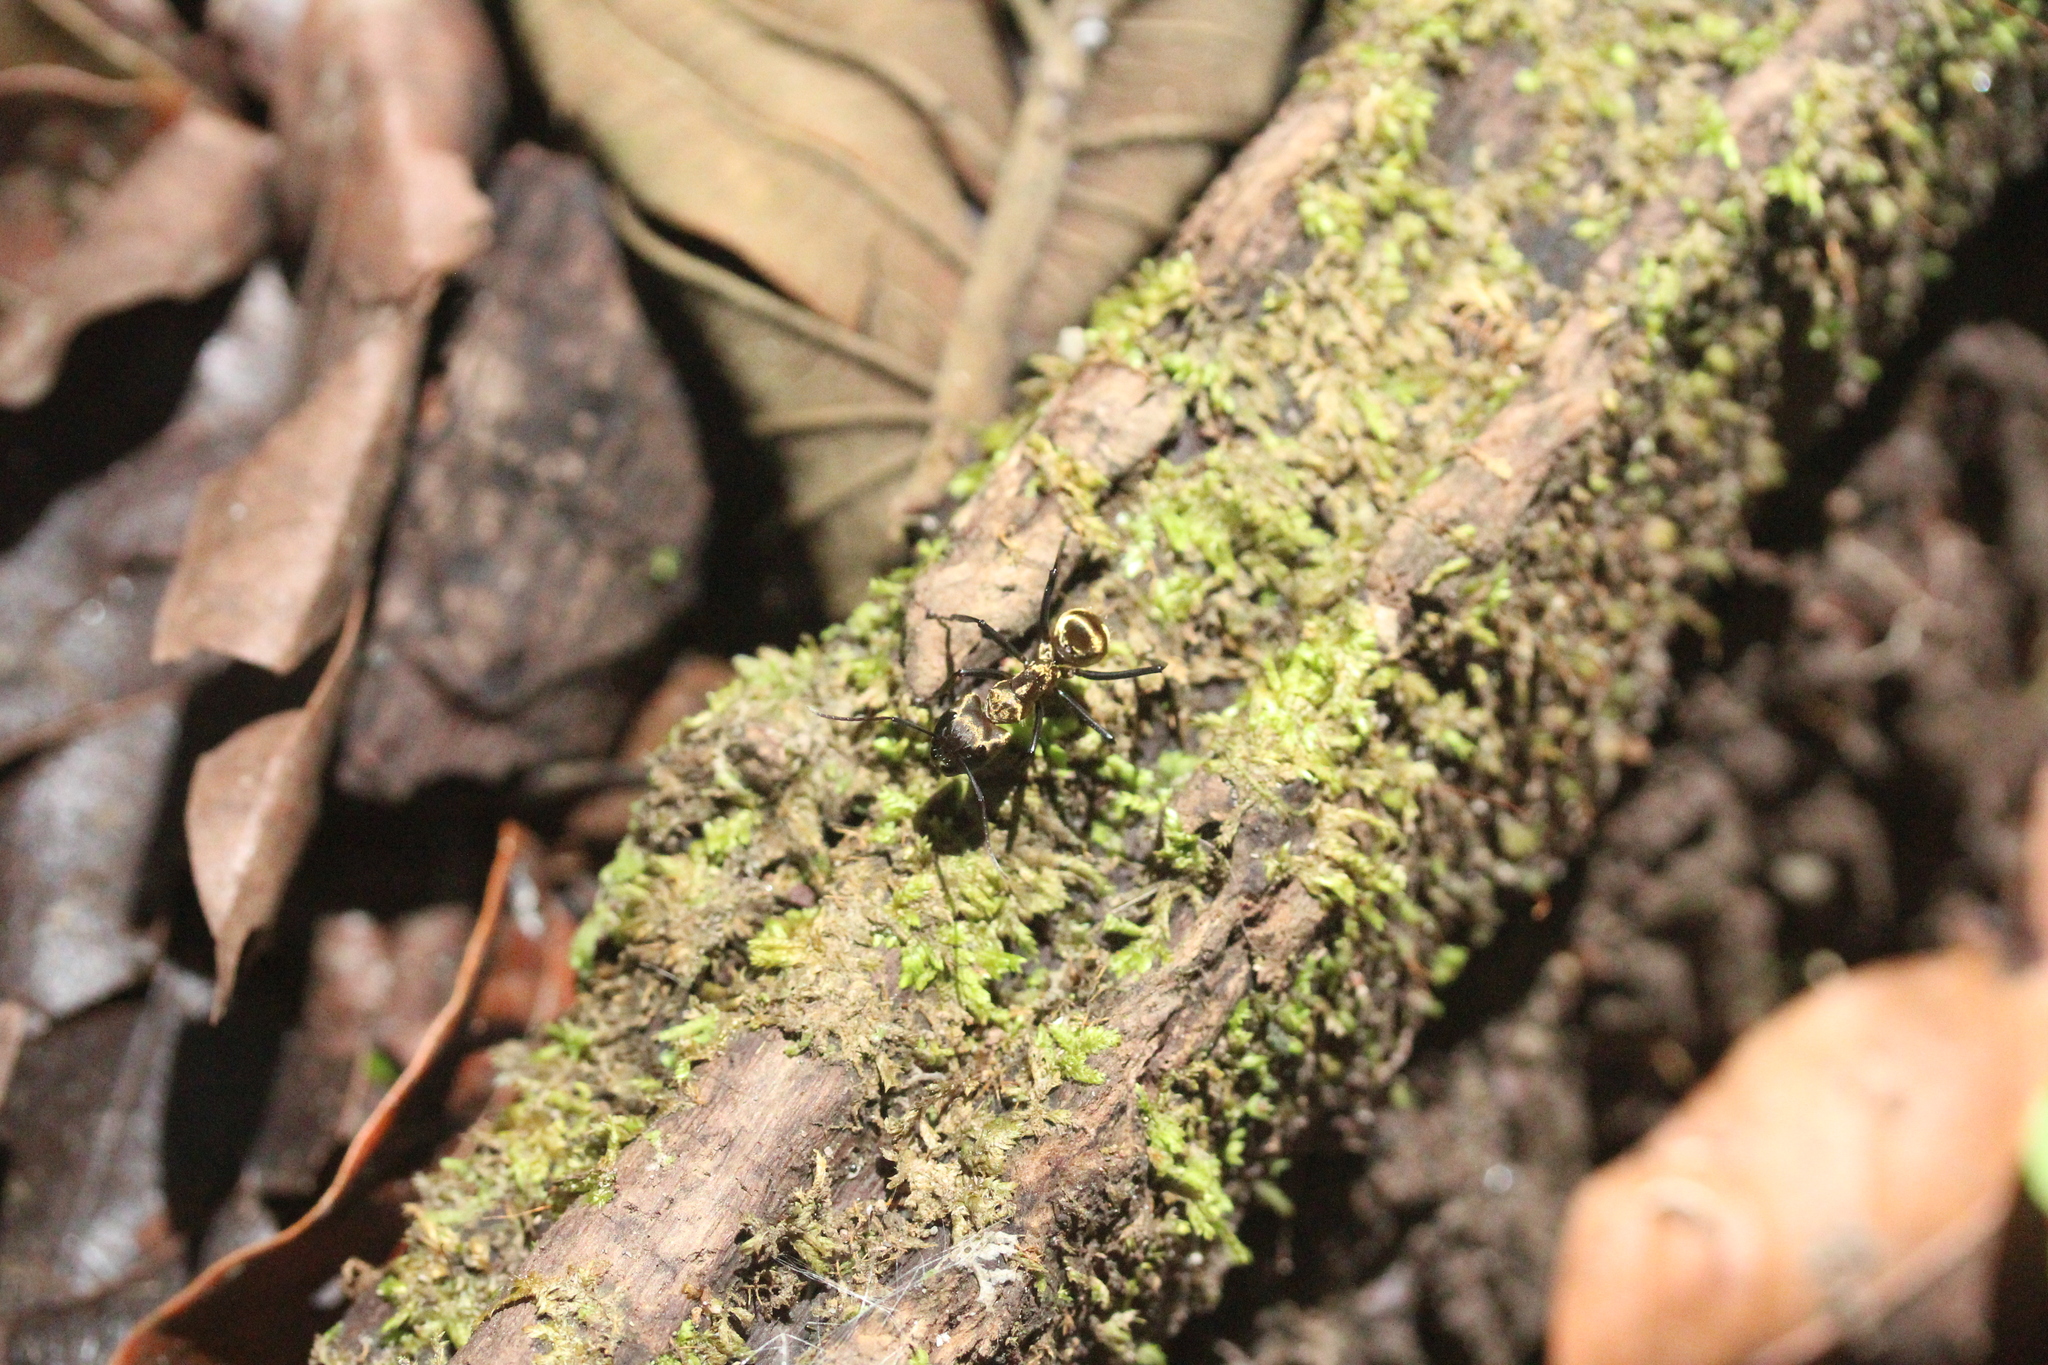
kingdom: Animalia
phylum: Arthropoda
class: Insecta
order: Hymenoptera
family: Formicidae
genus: Camponotus
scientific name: Camponotus sericeiventris
